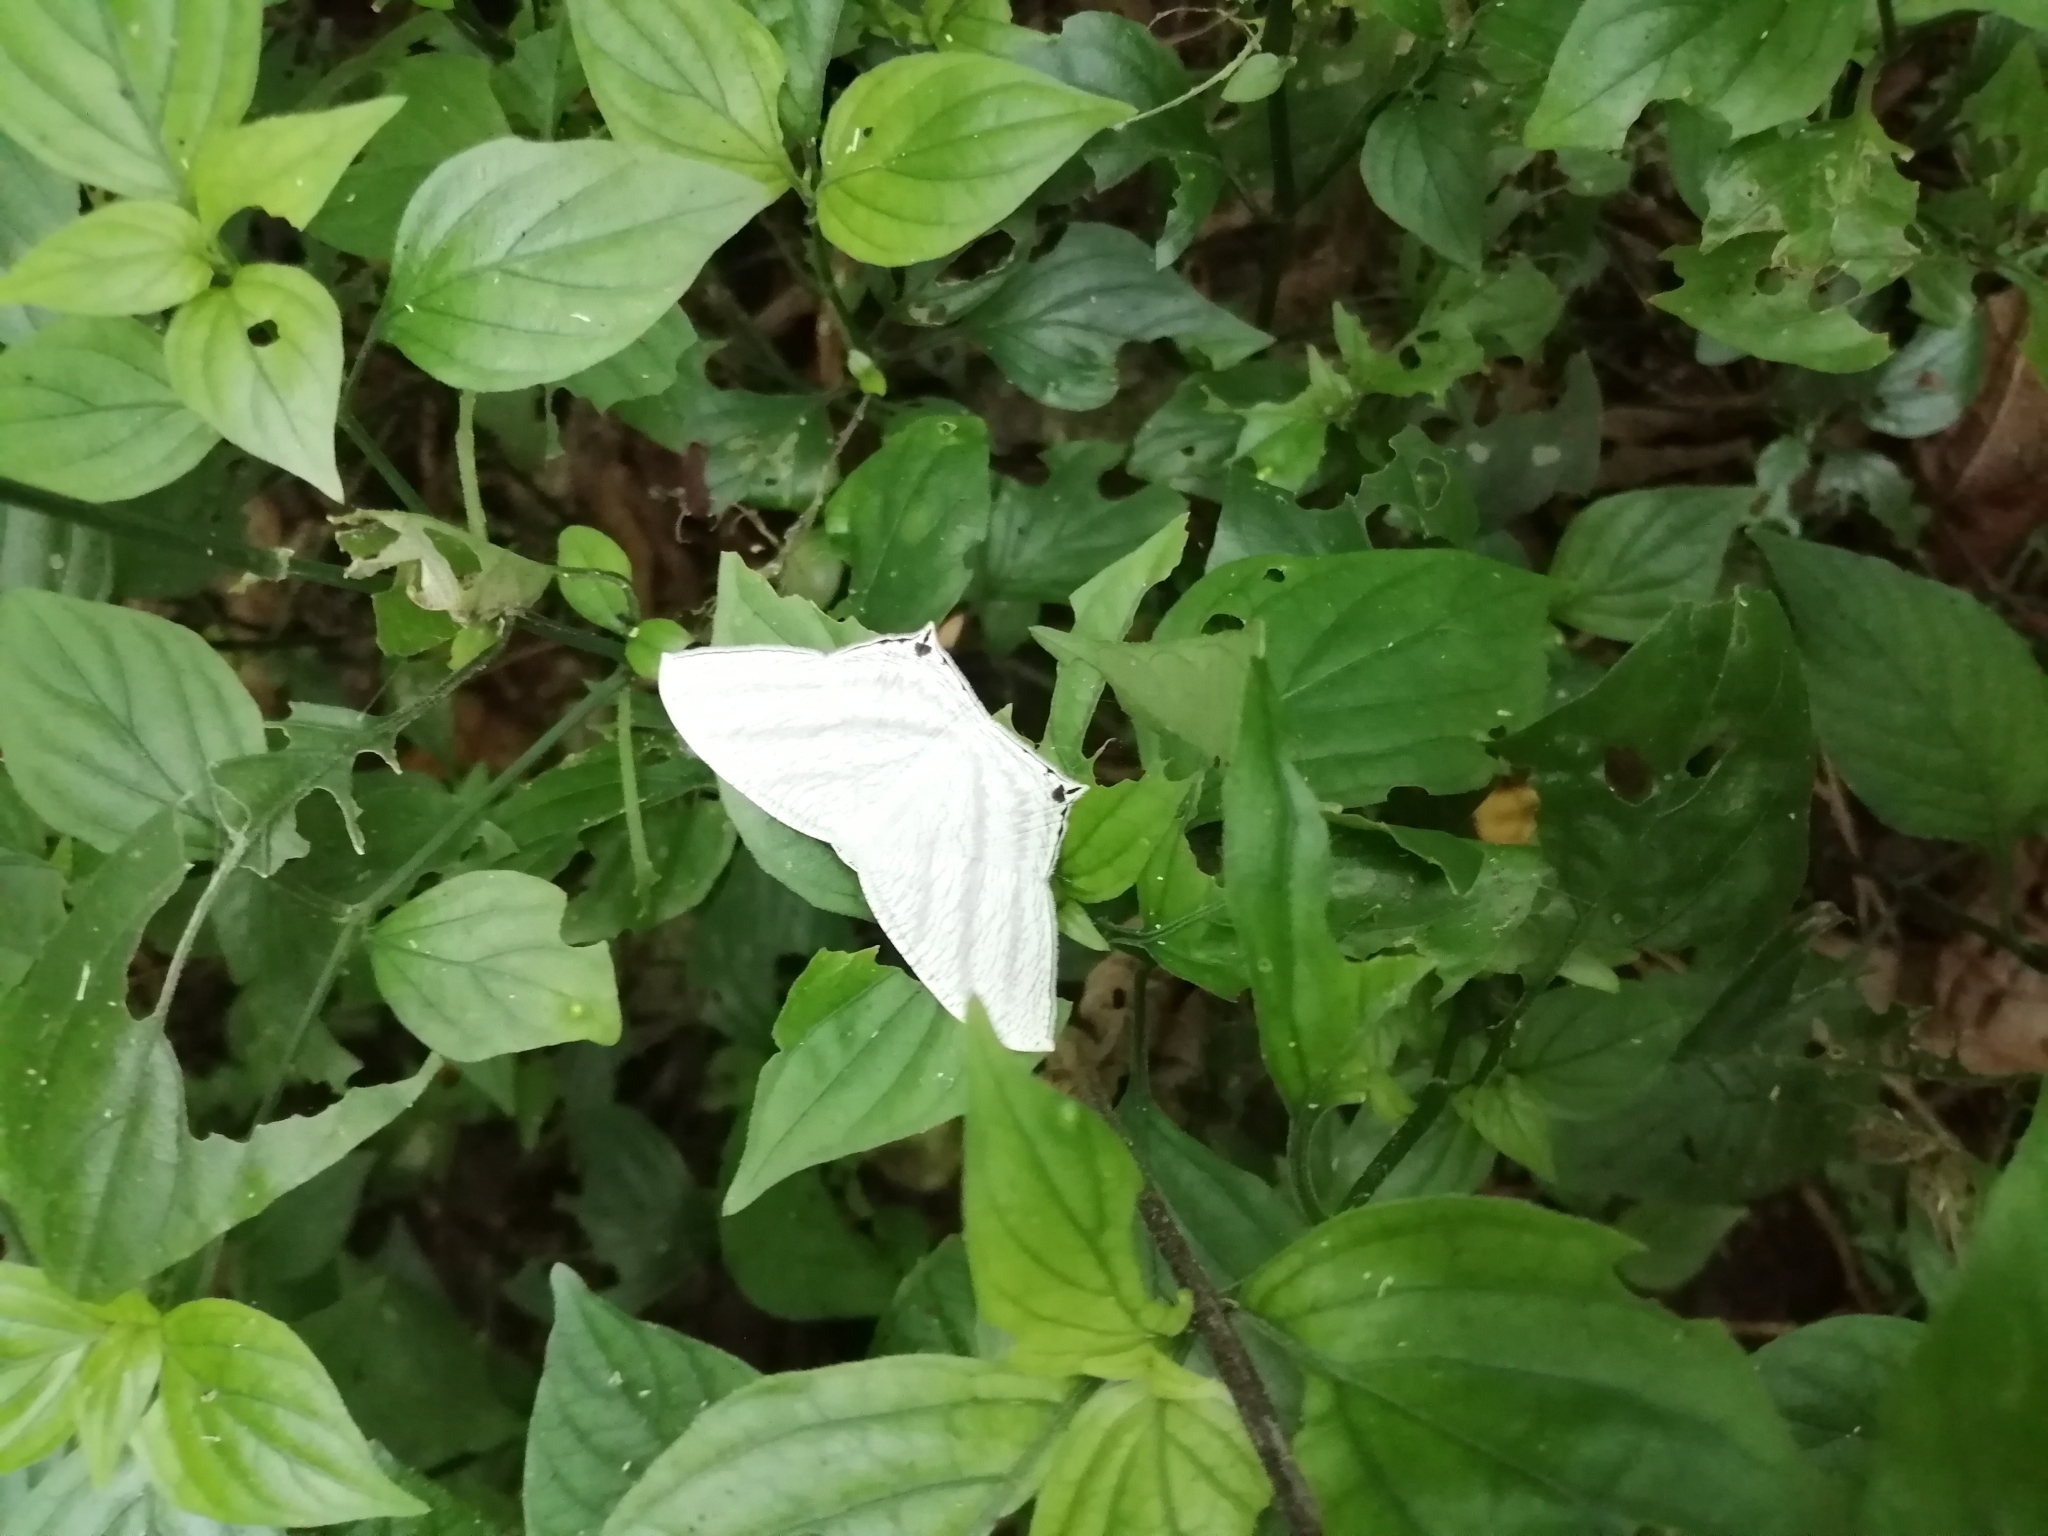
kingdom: Animalia
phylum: Arthropoda
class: Insecta
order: Lepidoptera
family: Uraniidae
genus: Micronia
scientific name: Micronia aculeata
